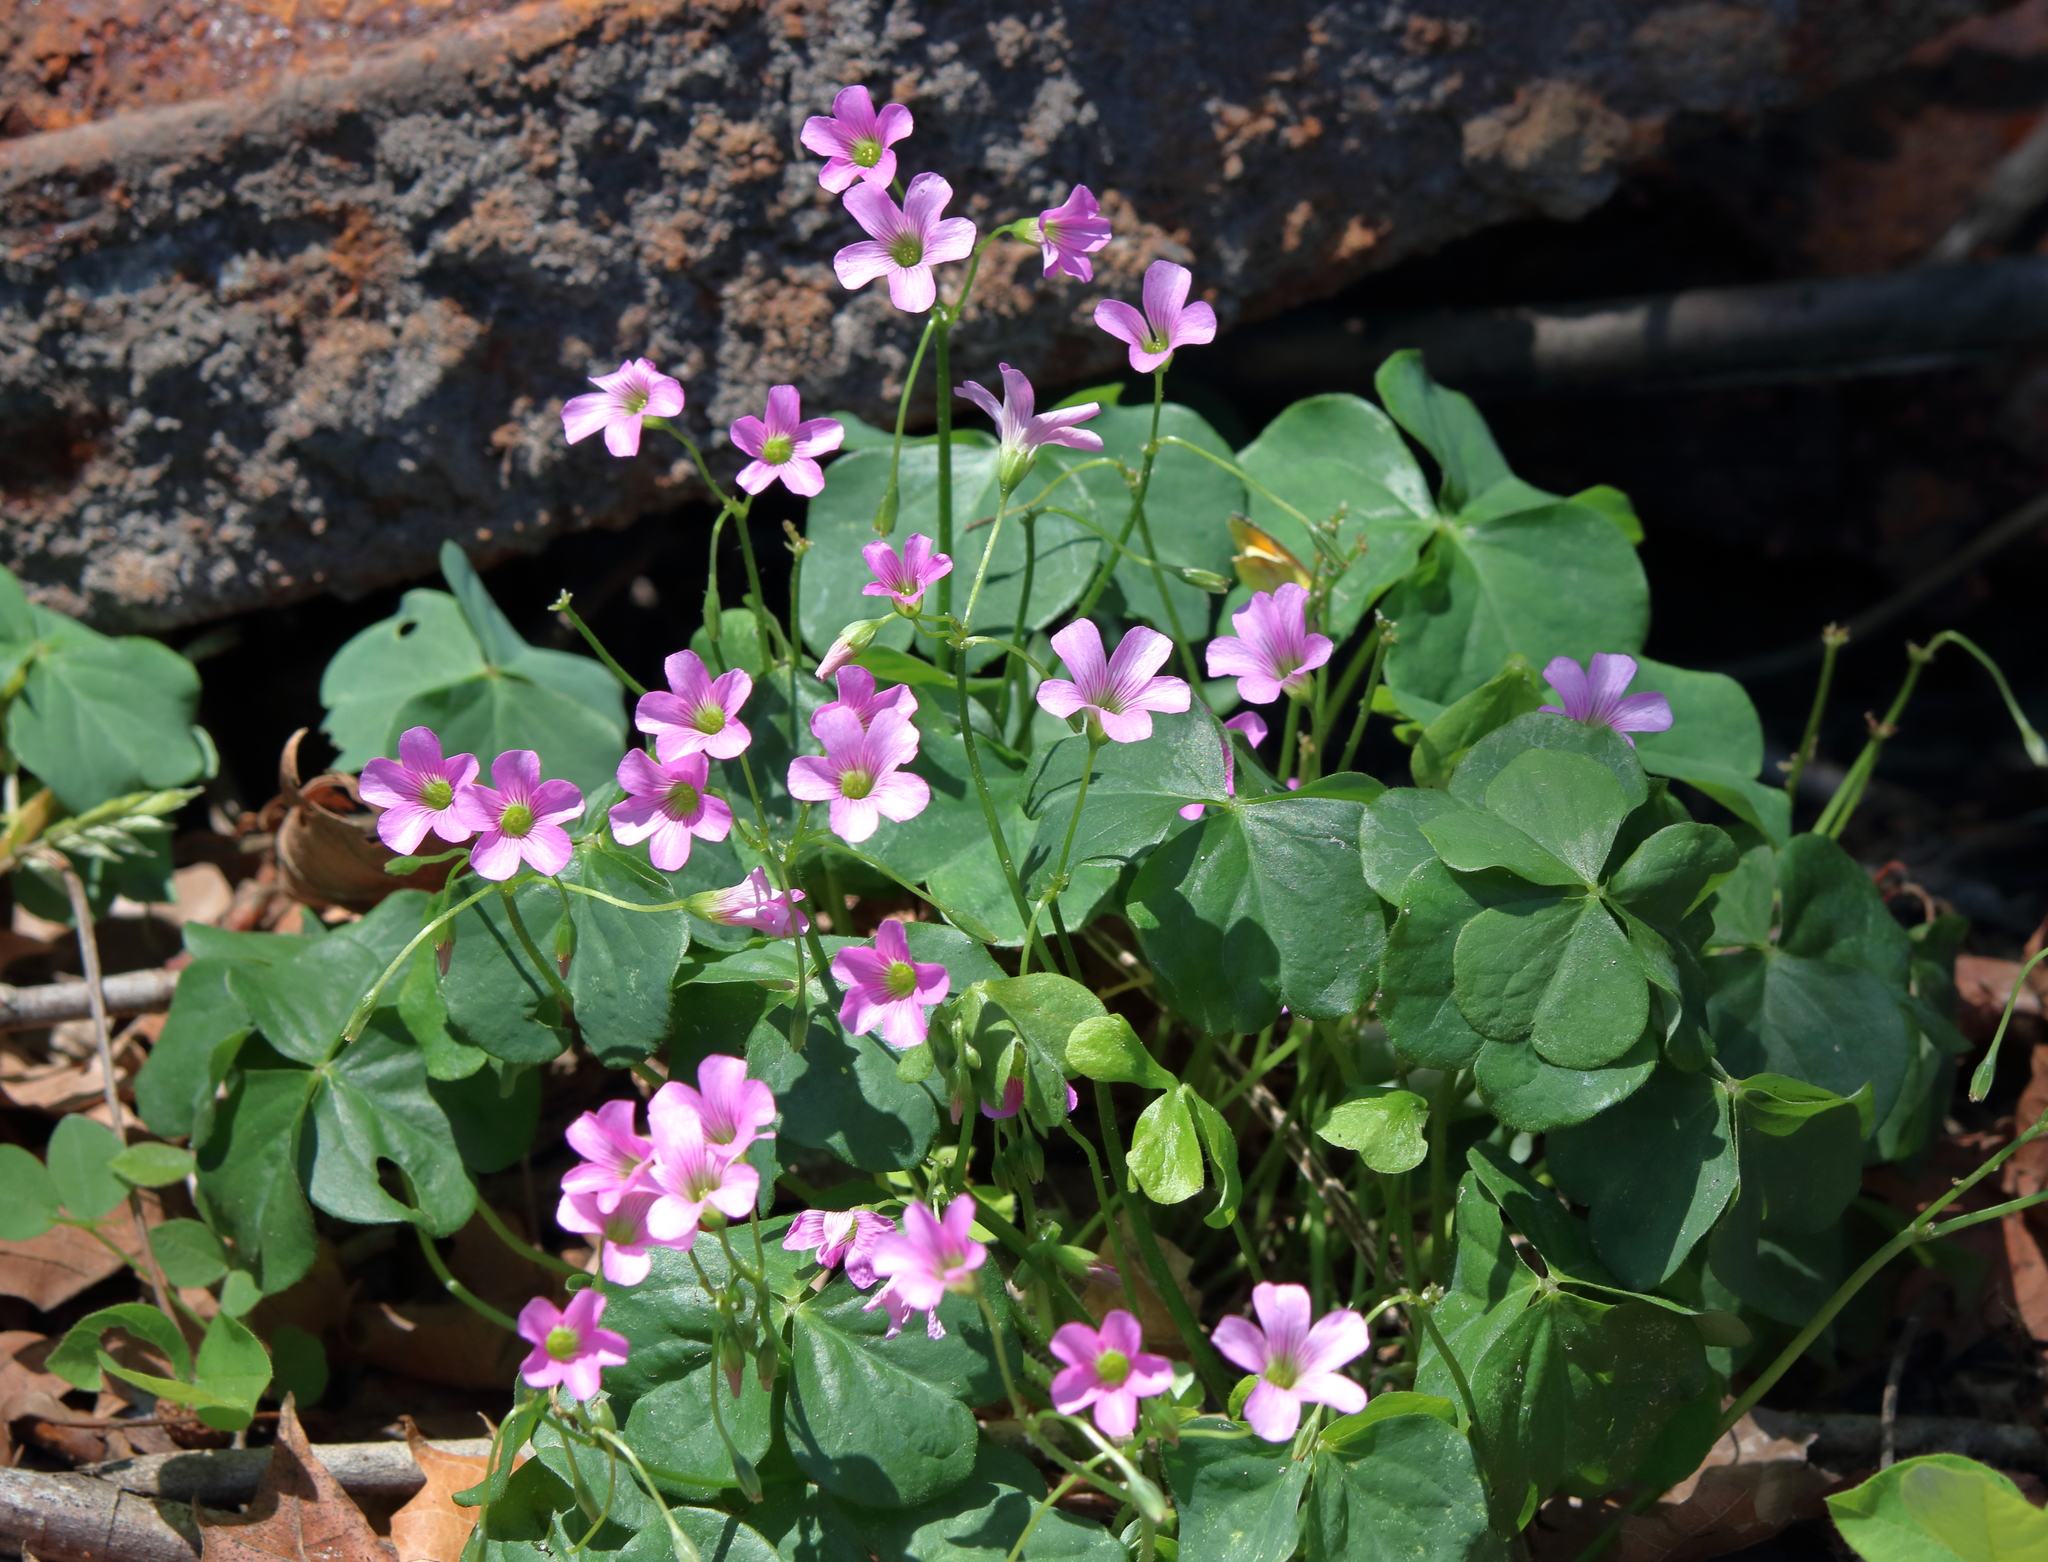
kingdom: Plantae
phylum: Tracheophyta
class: Magnoliopsida
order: Oxalidales
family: Oxalidaceae
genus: Oxalis
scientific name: Oxalis debilis
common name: Large-flowered pink-sorrel
